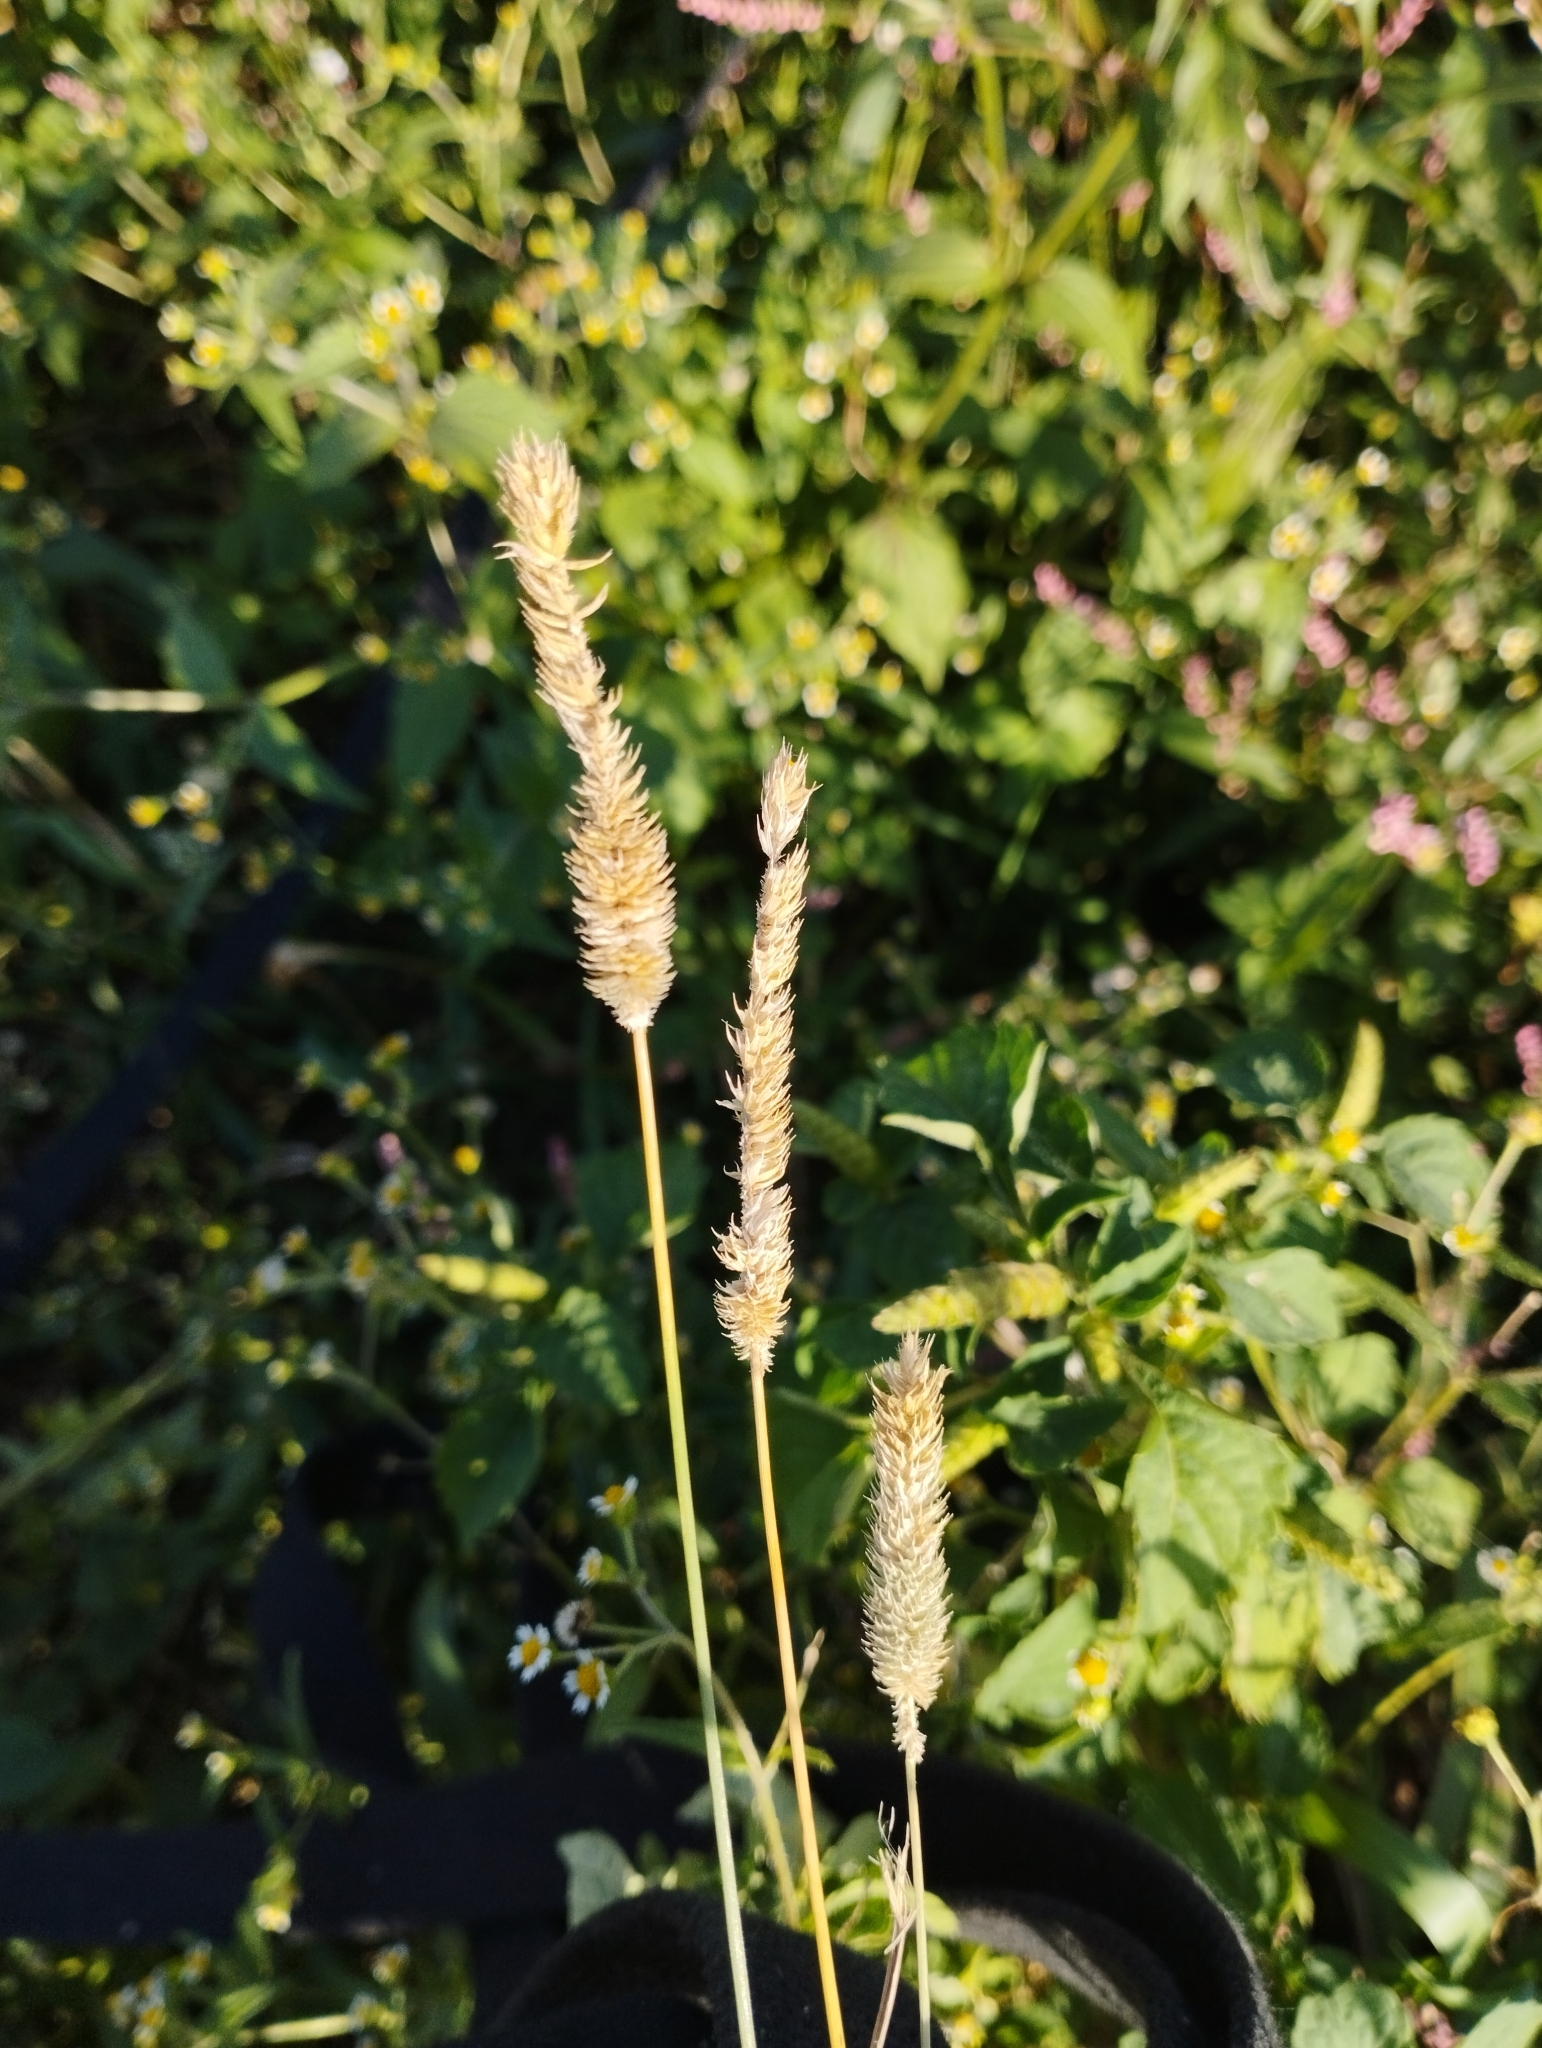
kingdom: Plantae
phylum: Tracheophyta
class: Liliopsida
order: Poales
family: Poaceae
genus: Phleum
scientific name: Phleum pratense
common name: Timothy grass
